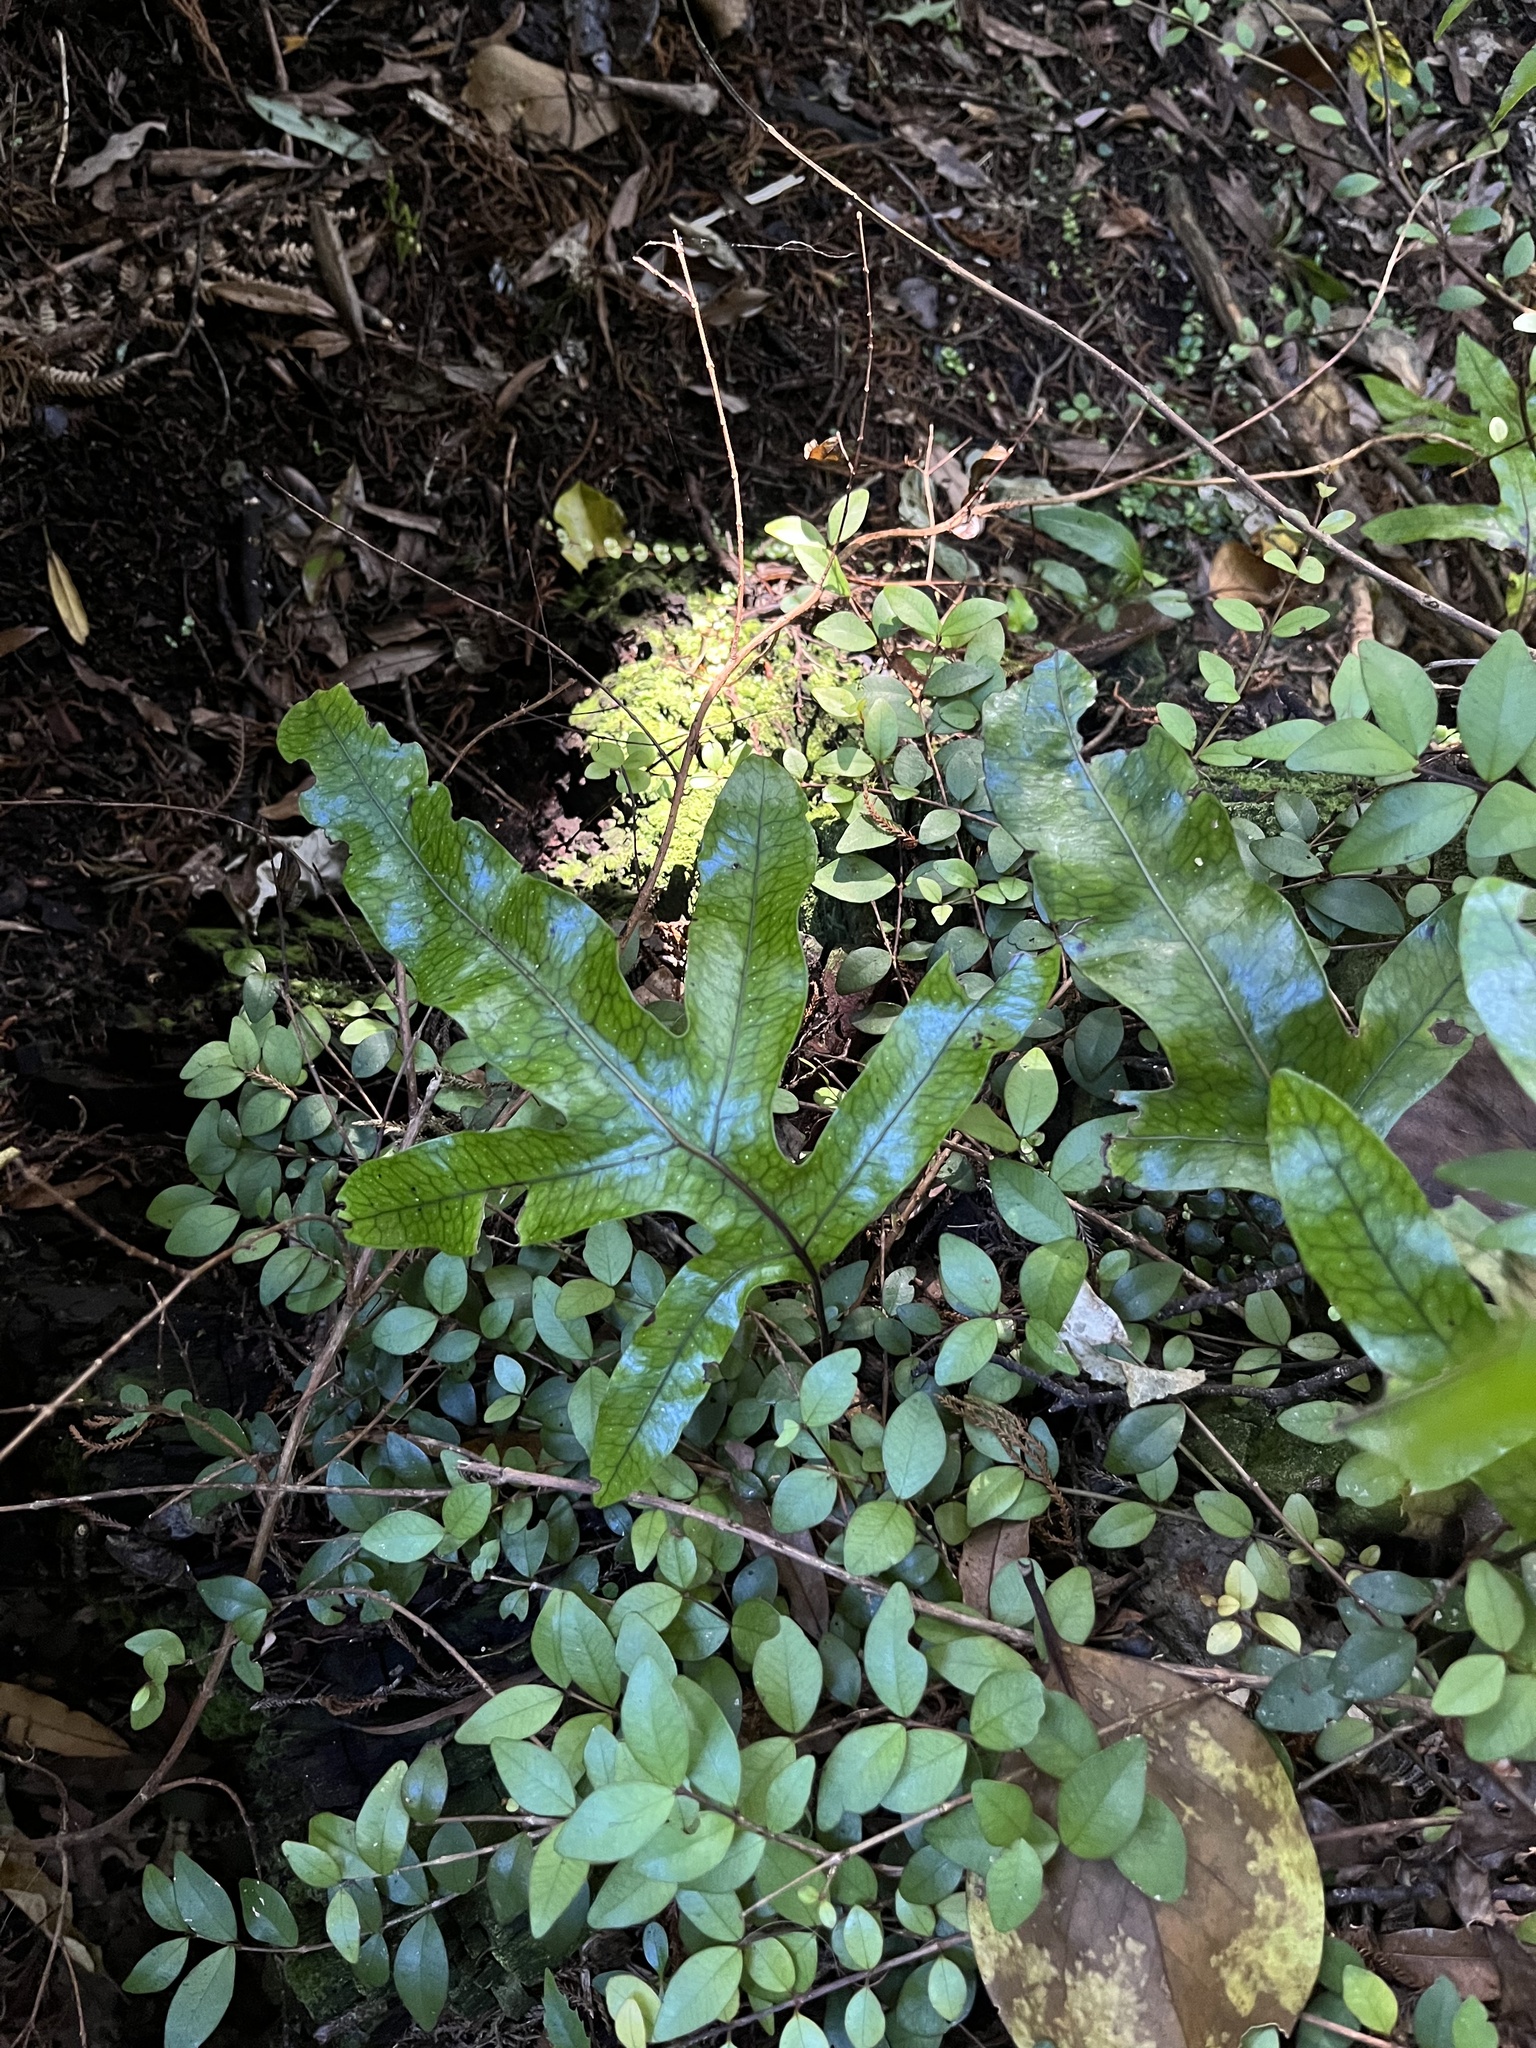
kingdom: Plantae
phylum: Tracheophyta
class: Polypodiopsida
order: Polypodiales
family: Polypodiaceae
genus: Lecanopteris
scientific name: Lecanopteris pustulata
